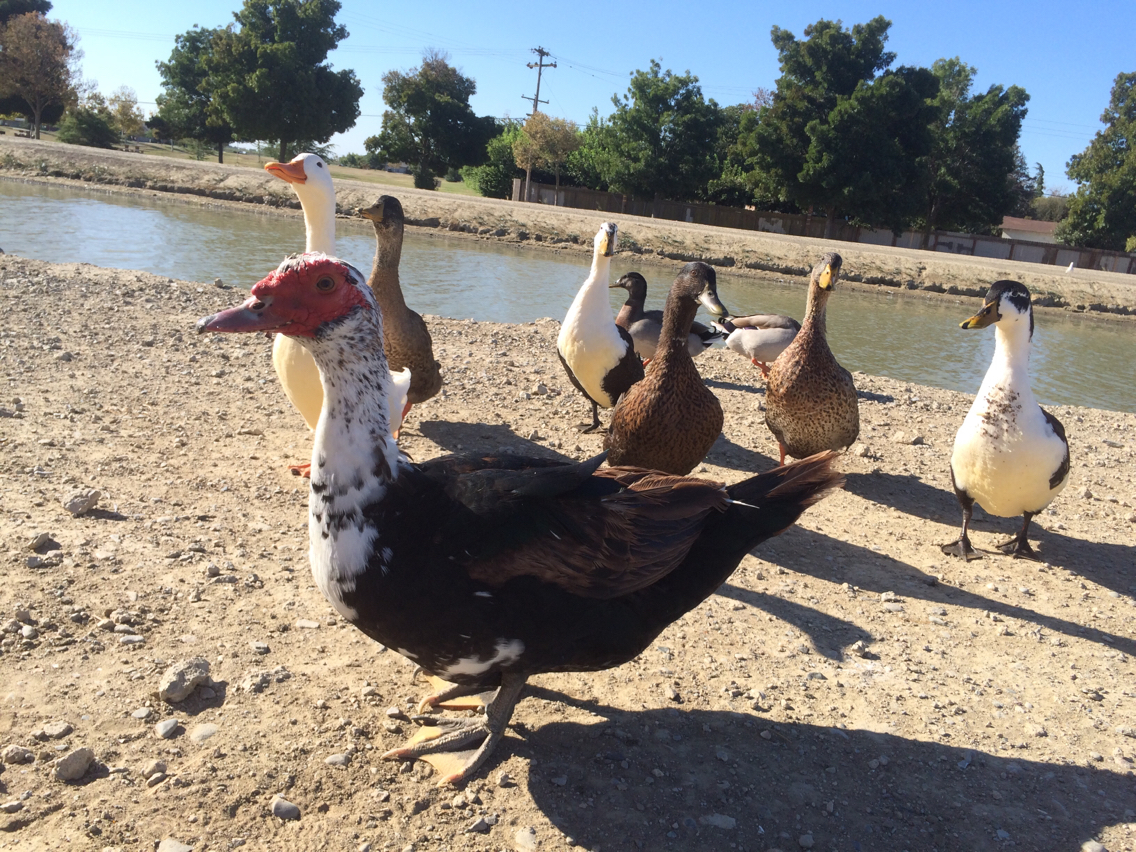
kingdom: Animalia
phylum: Chordata
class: Aves
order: Anseriformes
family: Anatidae
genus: Cairina
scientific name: Cairina moschata
